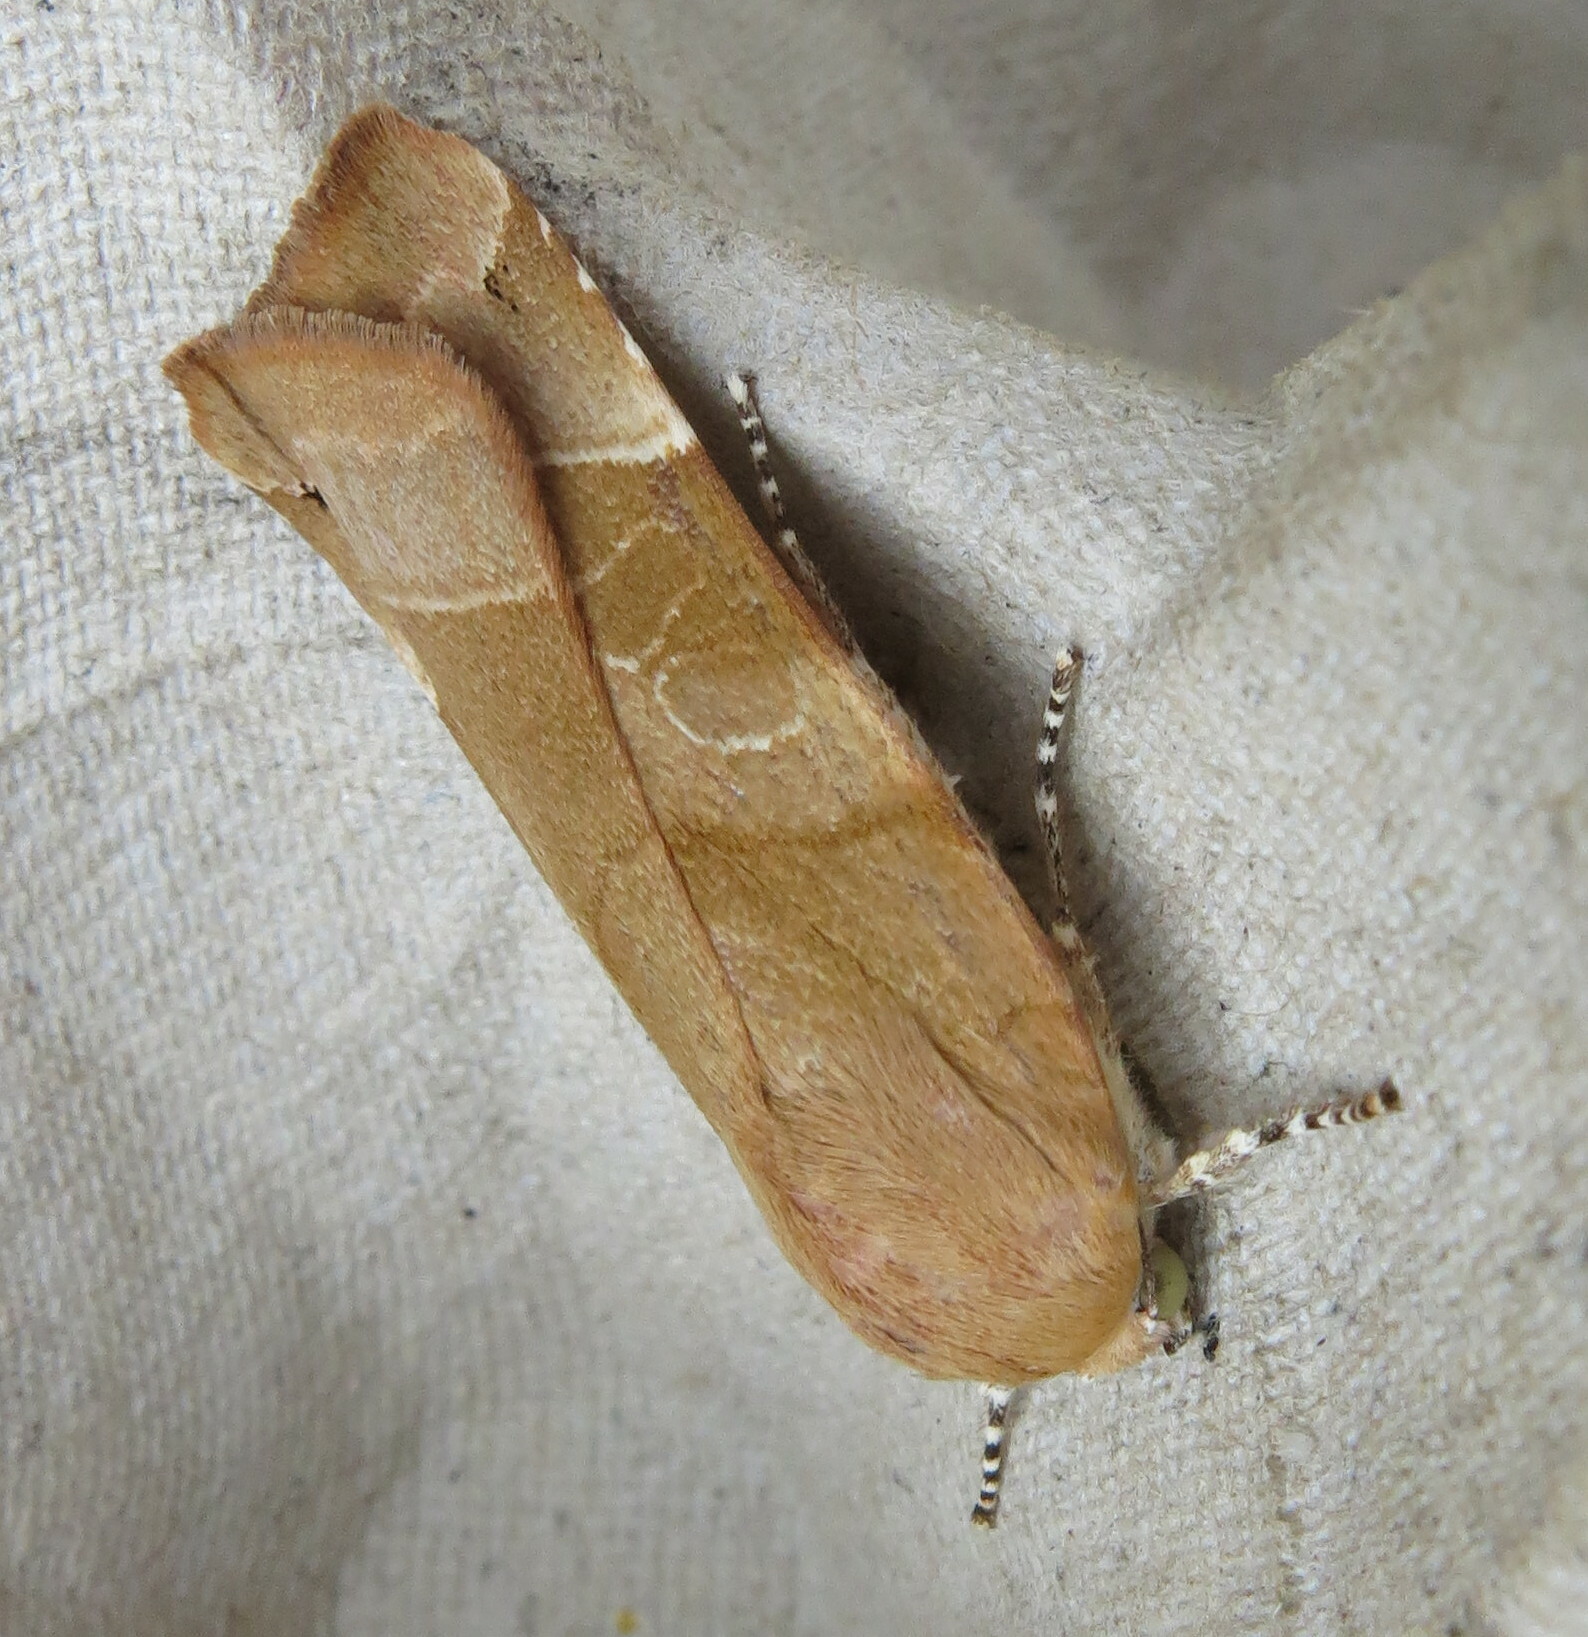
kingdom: Animalia
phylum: Arthropoda
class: Insecta
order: Lepidoptera
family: Noctuidae
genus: Noctua
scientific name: Noctua fimbriata
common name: Broad-bordered yellow underwing
